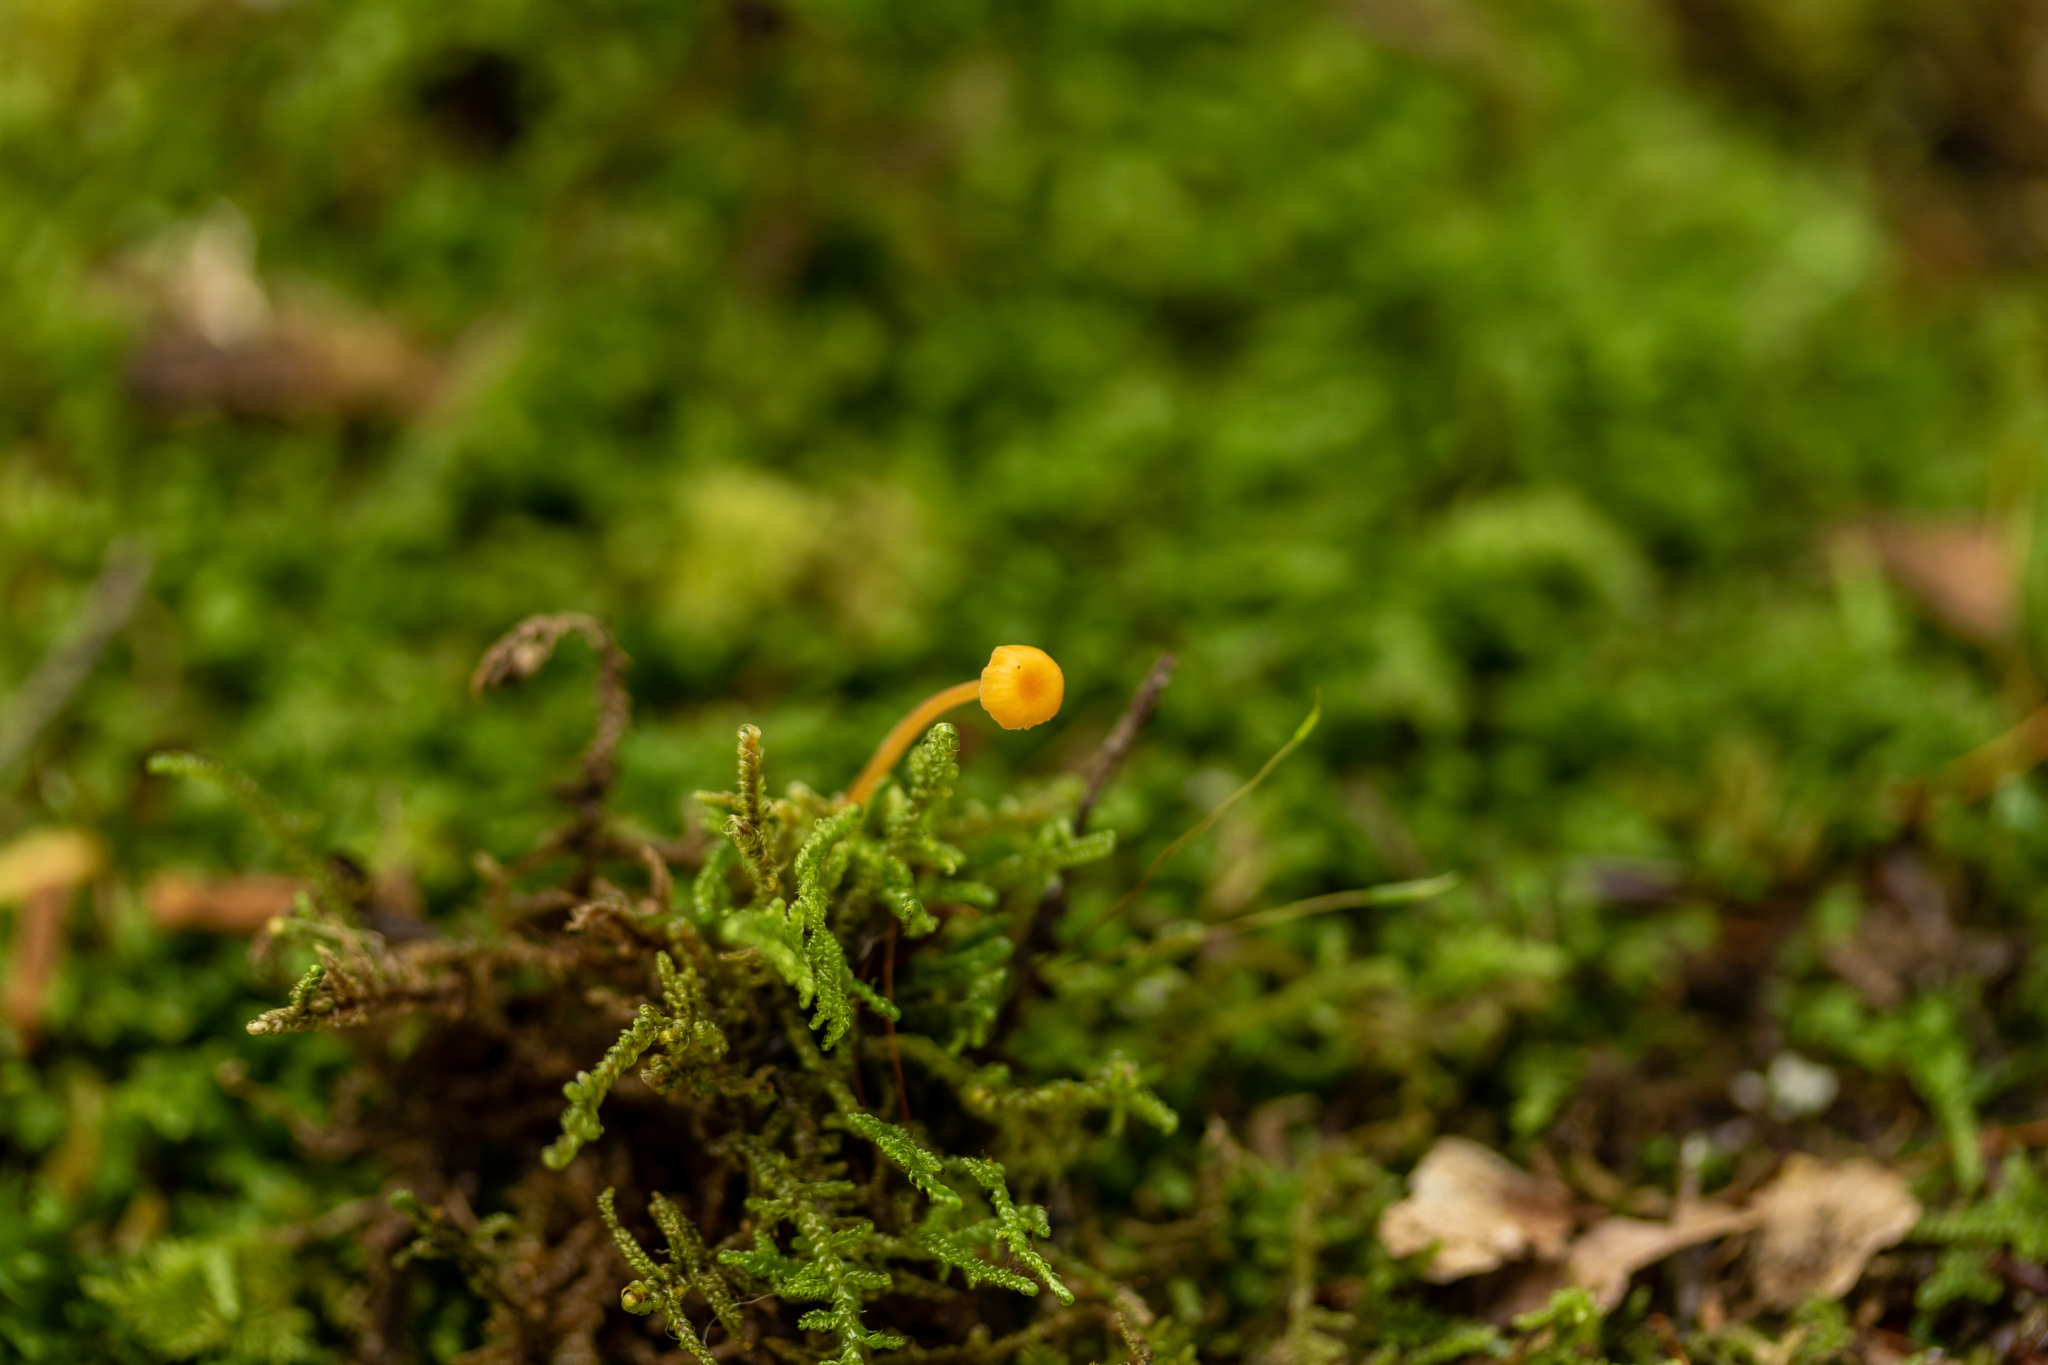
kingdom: Fungi
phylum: Basidiomycota
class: Agaricomycetes
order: Hymenochaetales
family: Rickenellaceae
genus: Rickenella
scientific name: Rickenella fibula
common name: Orange mosscap
